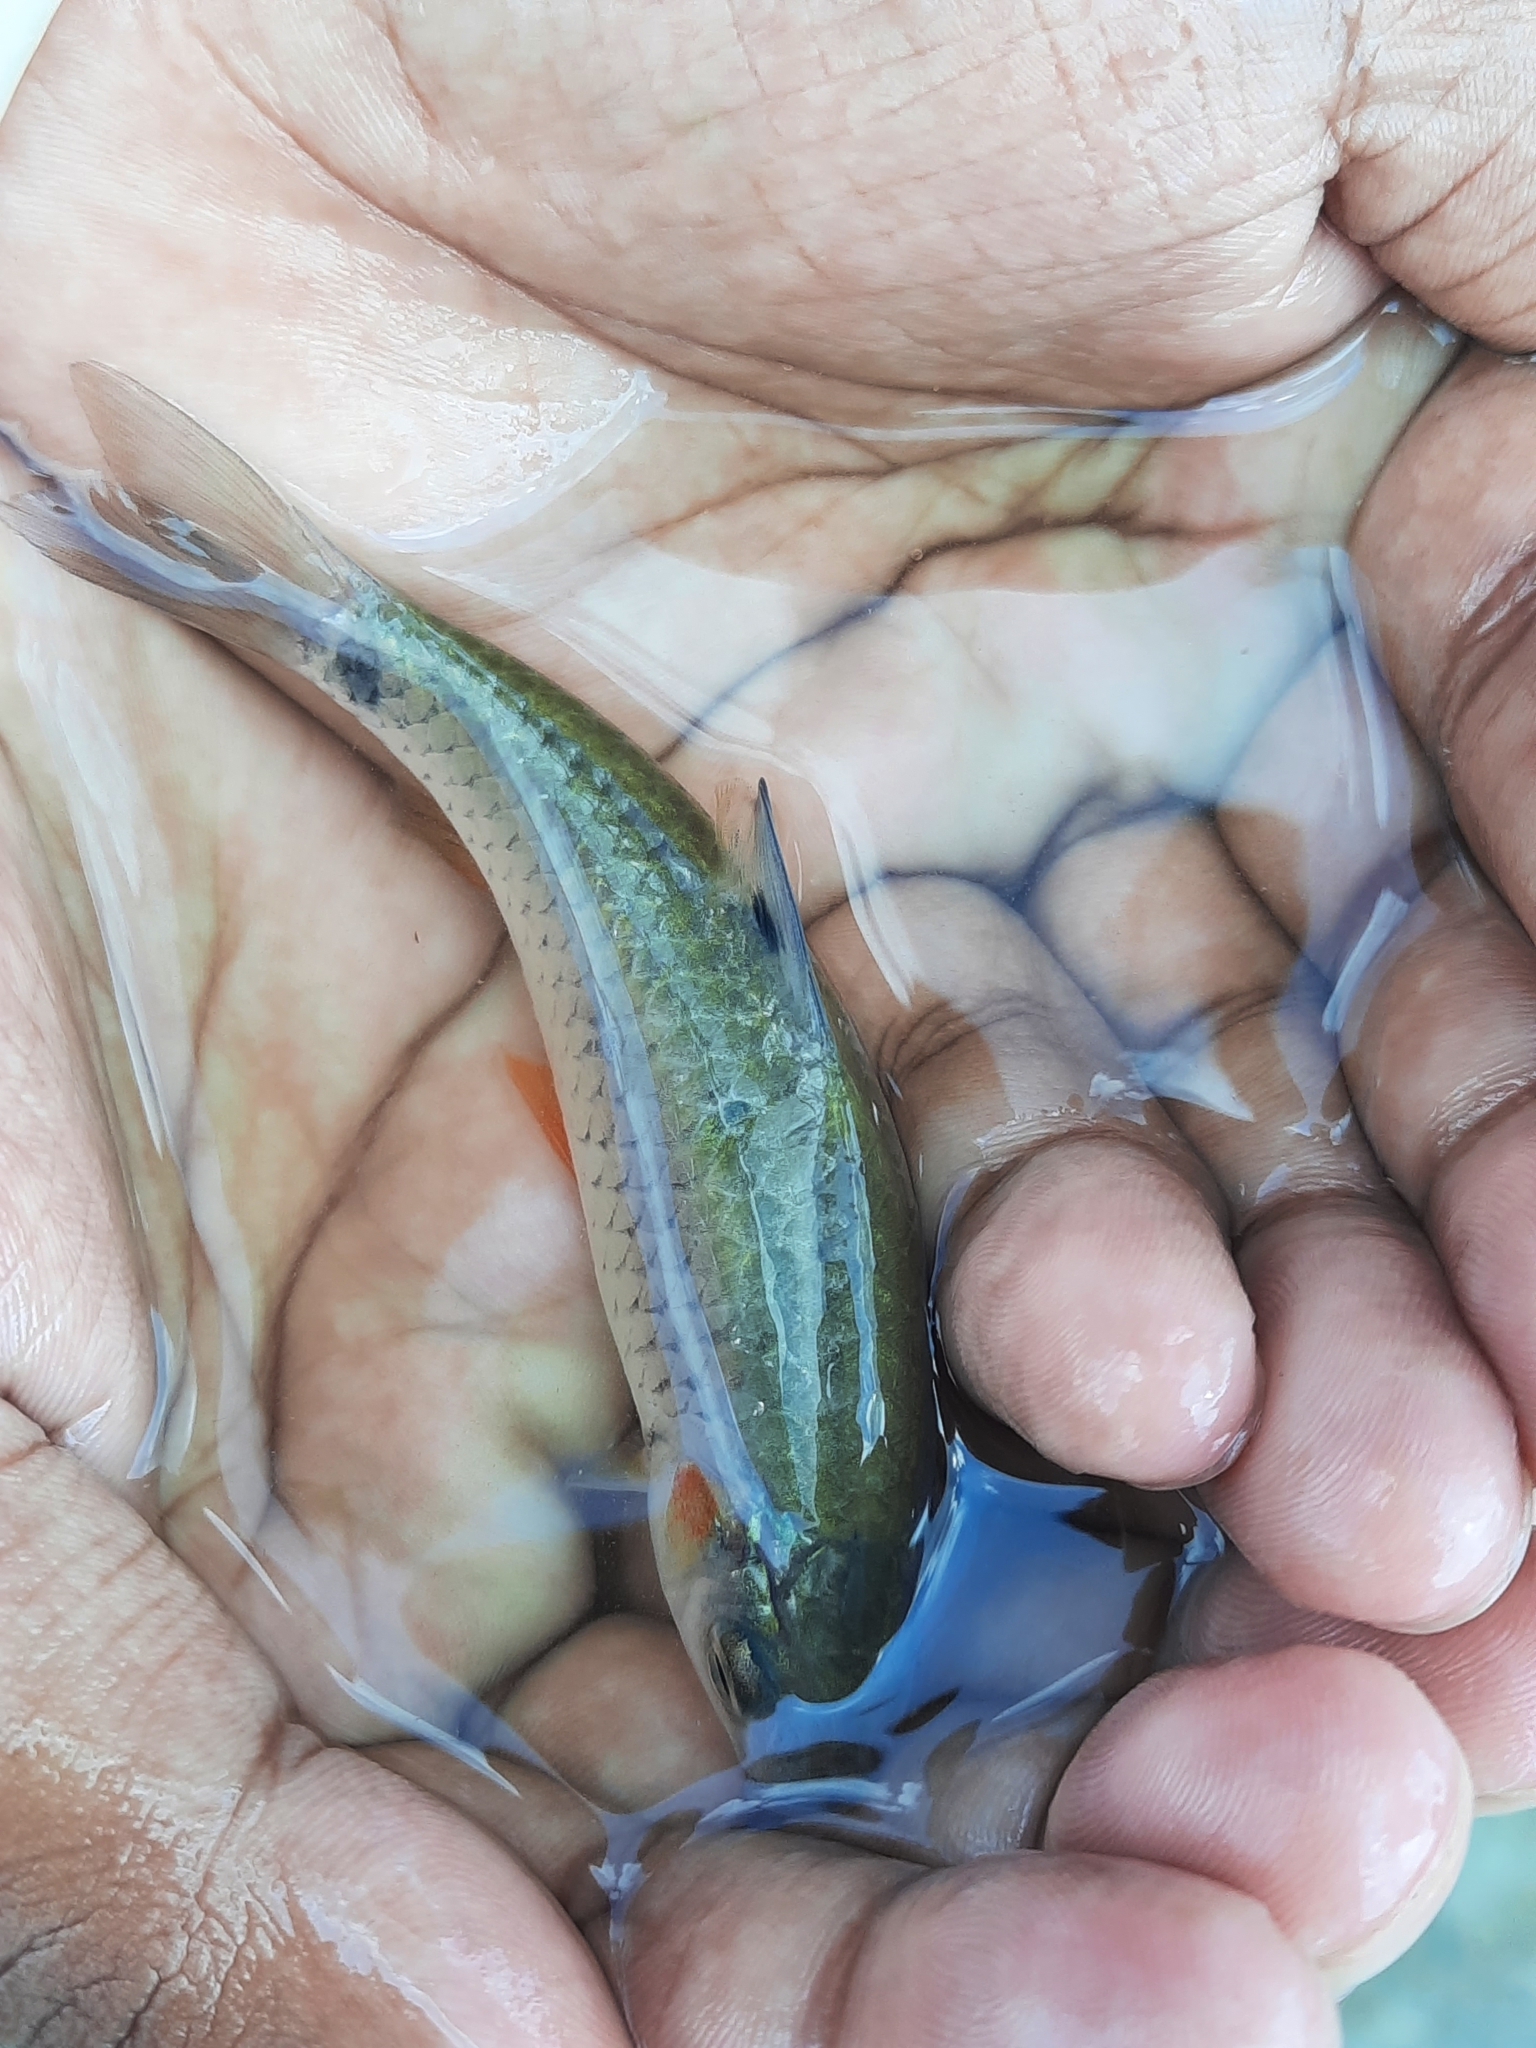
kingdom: Animalia
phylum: Chordata
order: Cypriniformes
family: Cyprinidae
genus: Puntius
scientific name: Puntius chola
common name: Swamp barb
